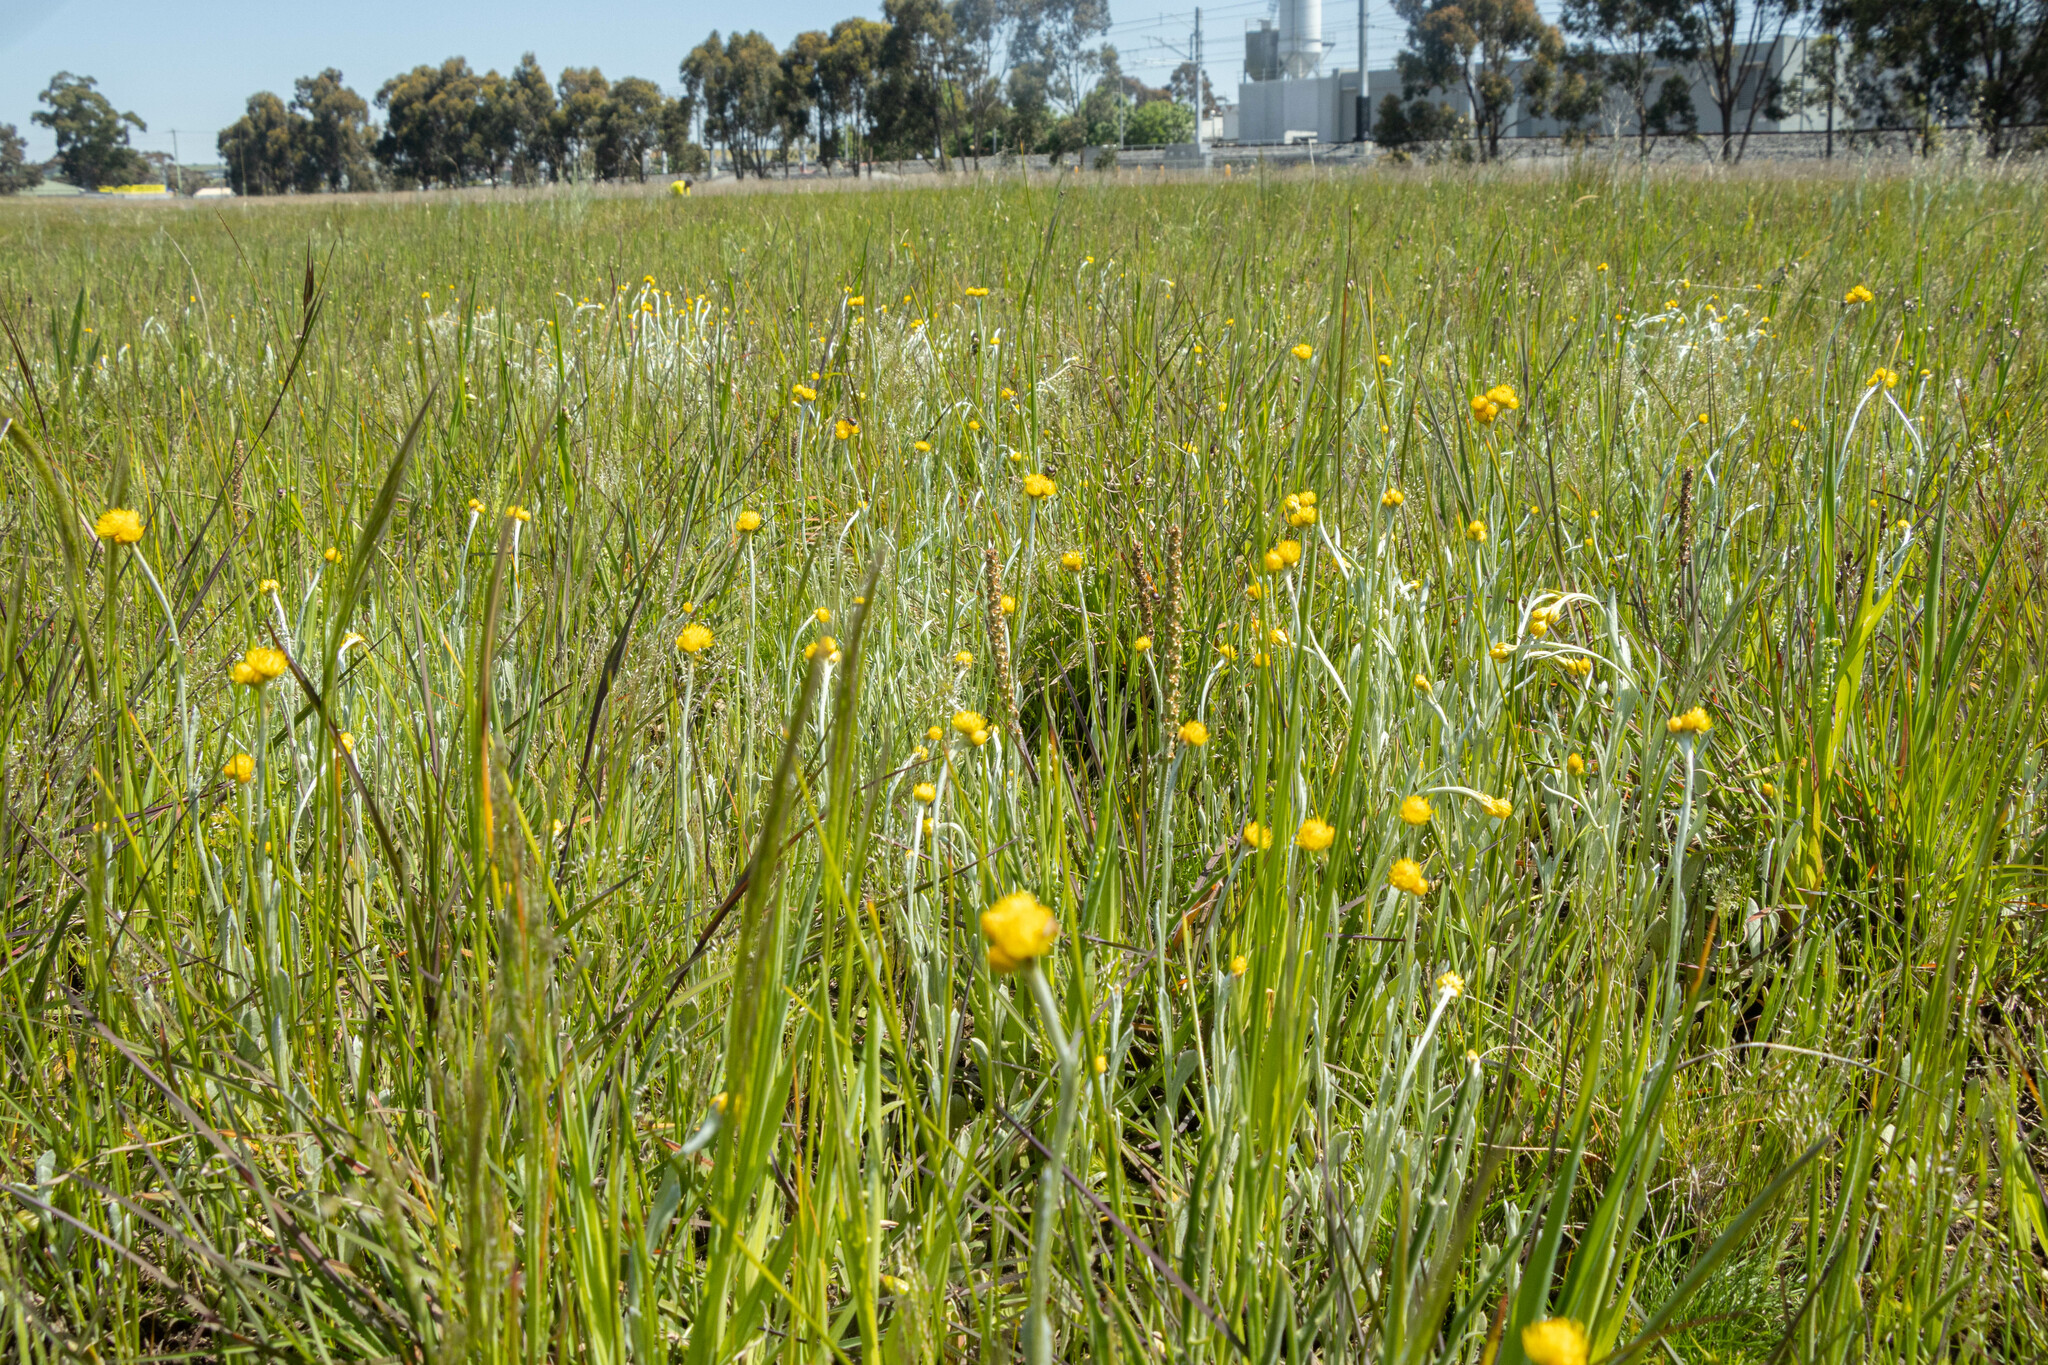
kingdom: Plantae
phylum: Tracheophyta
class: Magnoliopsida
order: Asterales
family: Asteraceae
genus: Chrysocephalum
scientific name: Chrysocephalum apiculatum
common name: Common everlasting
